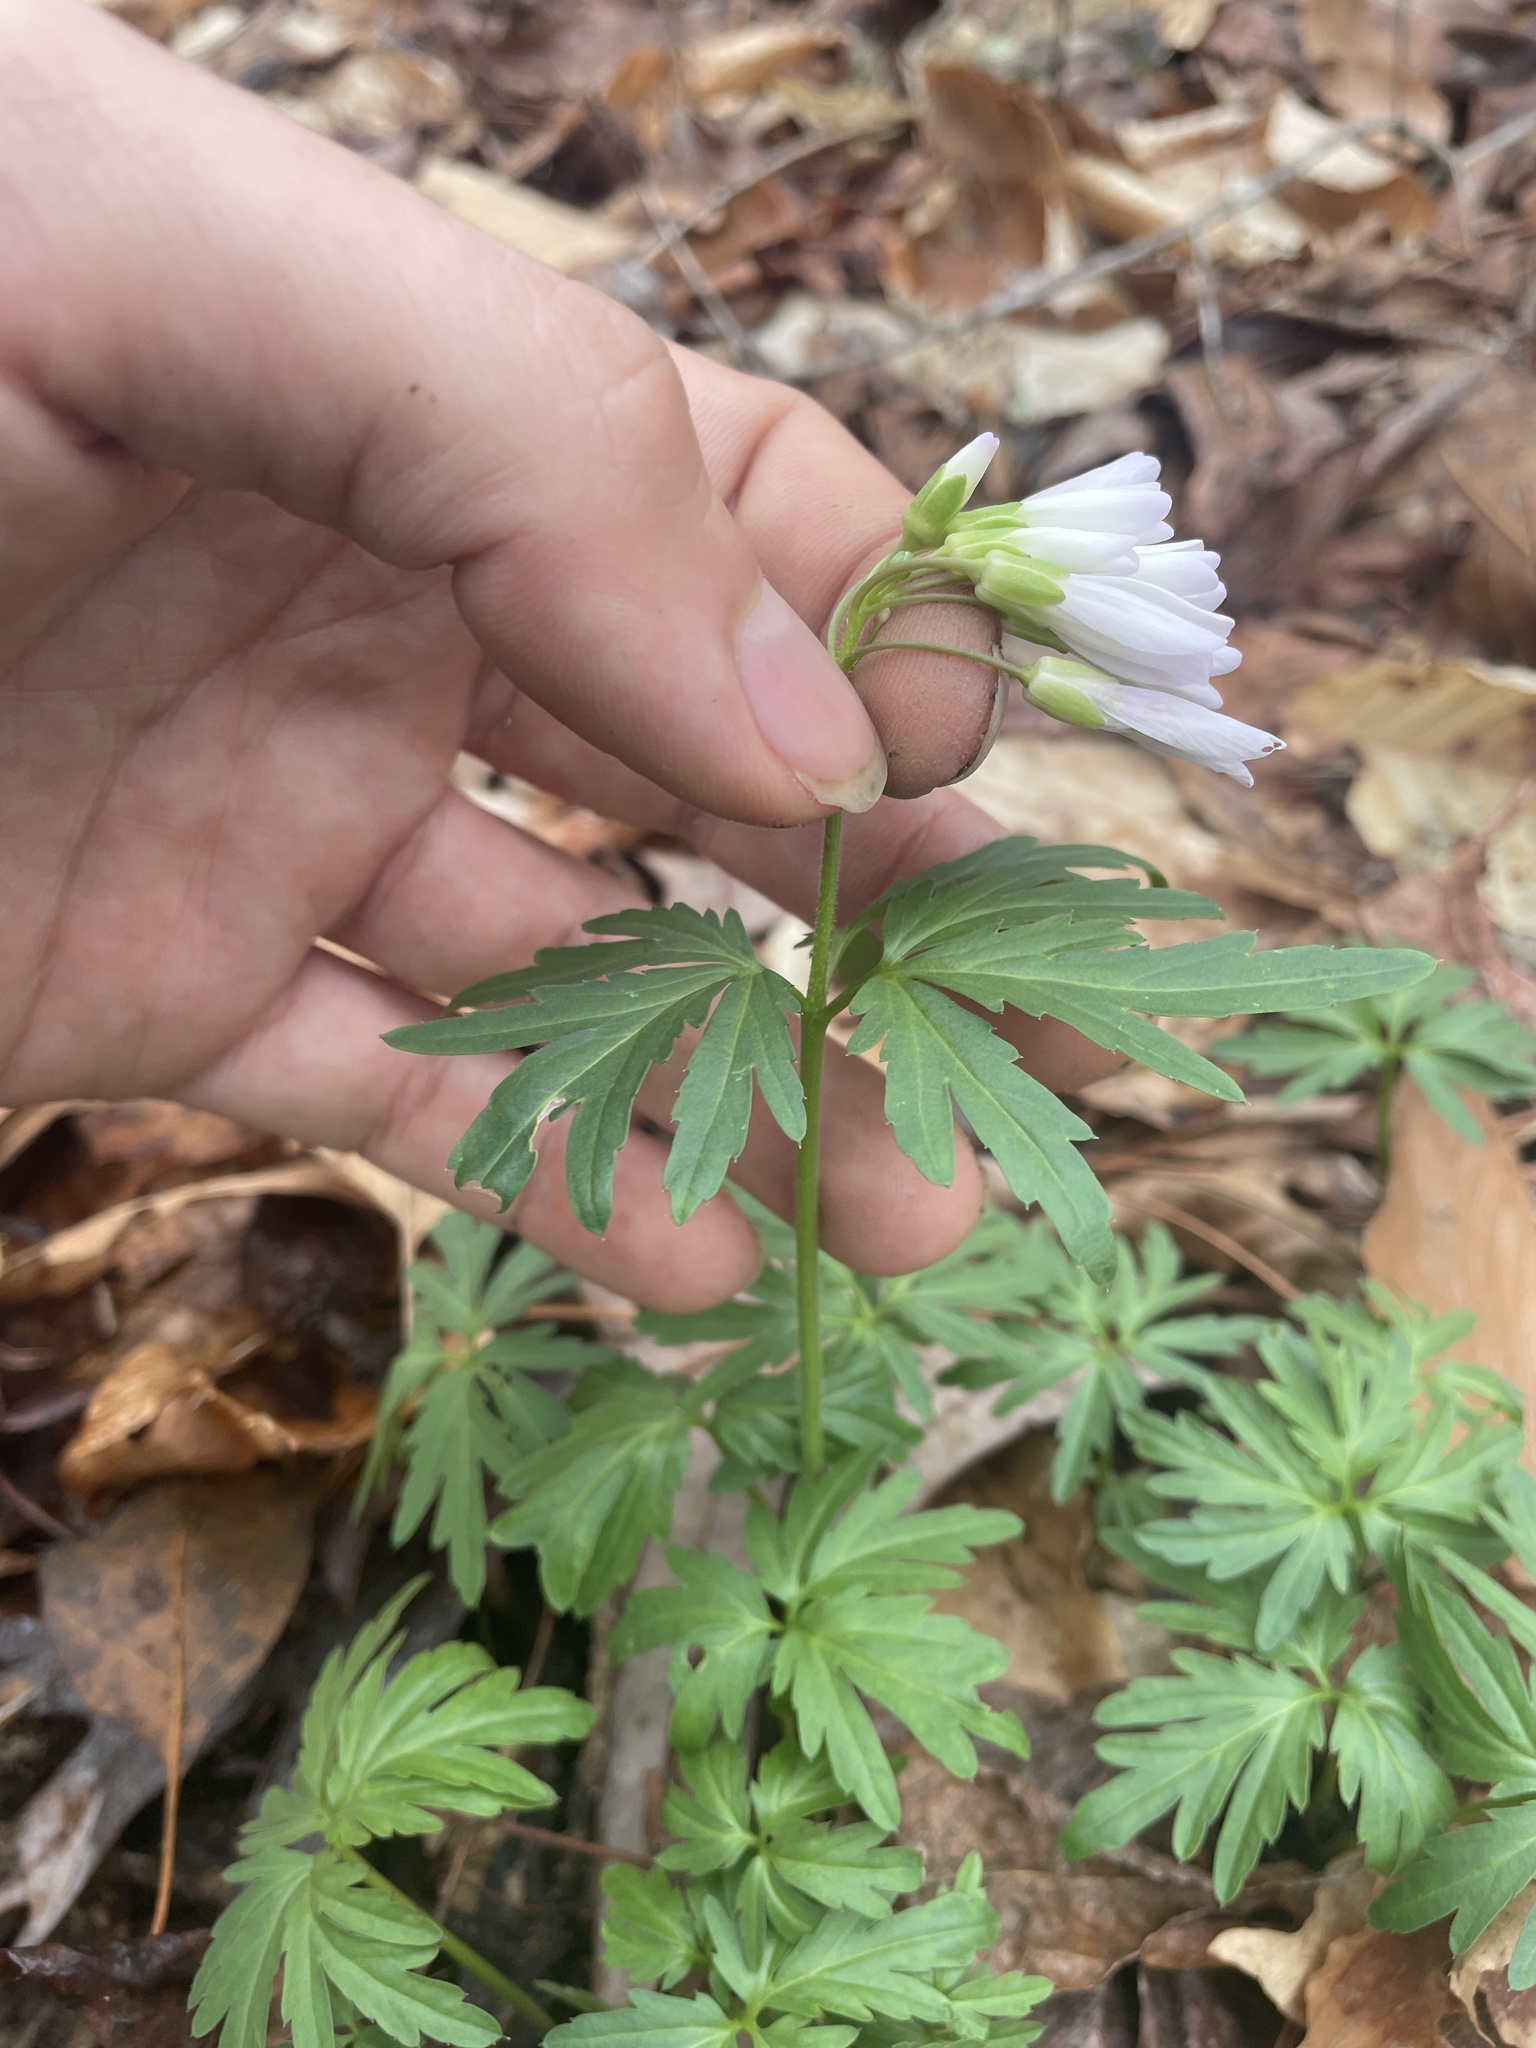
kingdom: Plantae
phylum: Tracheophyta
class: Magnoliopsida
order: Brassicales
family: Brassicaceae
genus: Cardamine
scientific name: Cardamine concatenata
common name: Cut-leaf toothcup
